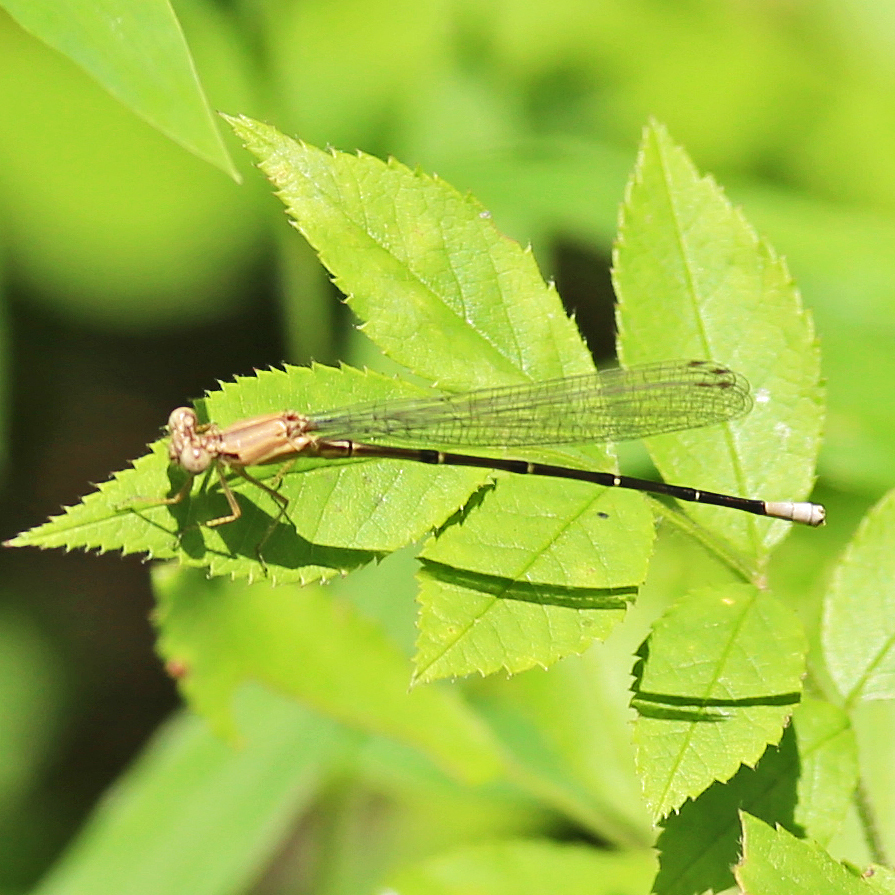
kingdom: Animalia
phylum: Arthropoda
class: Insecta
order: Odonata
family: Coenagrionidae
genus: Argia
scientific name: Argia apicalis
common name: Blue-fronted dancer
